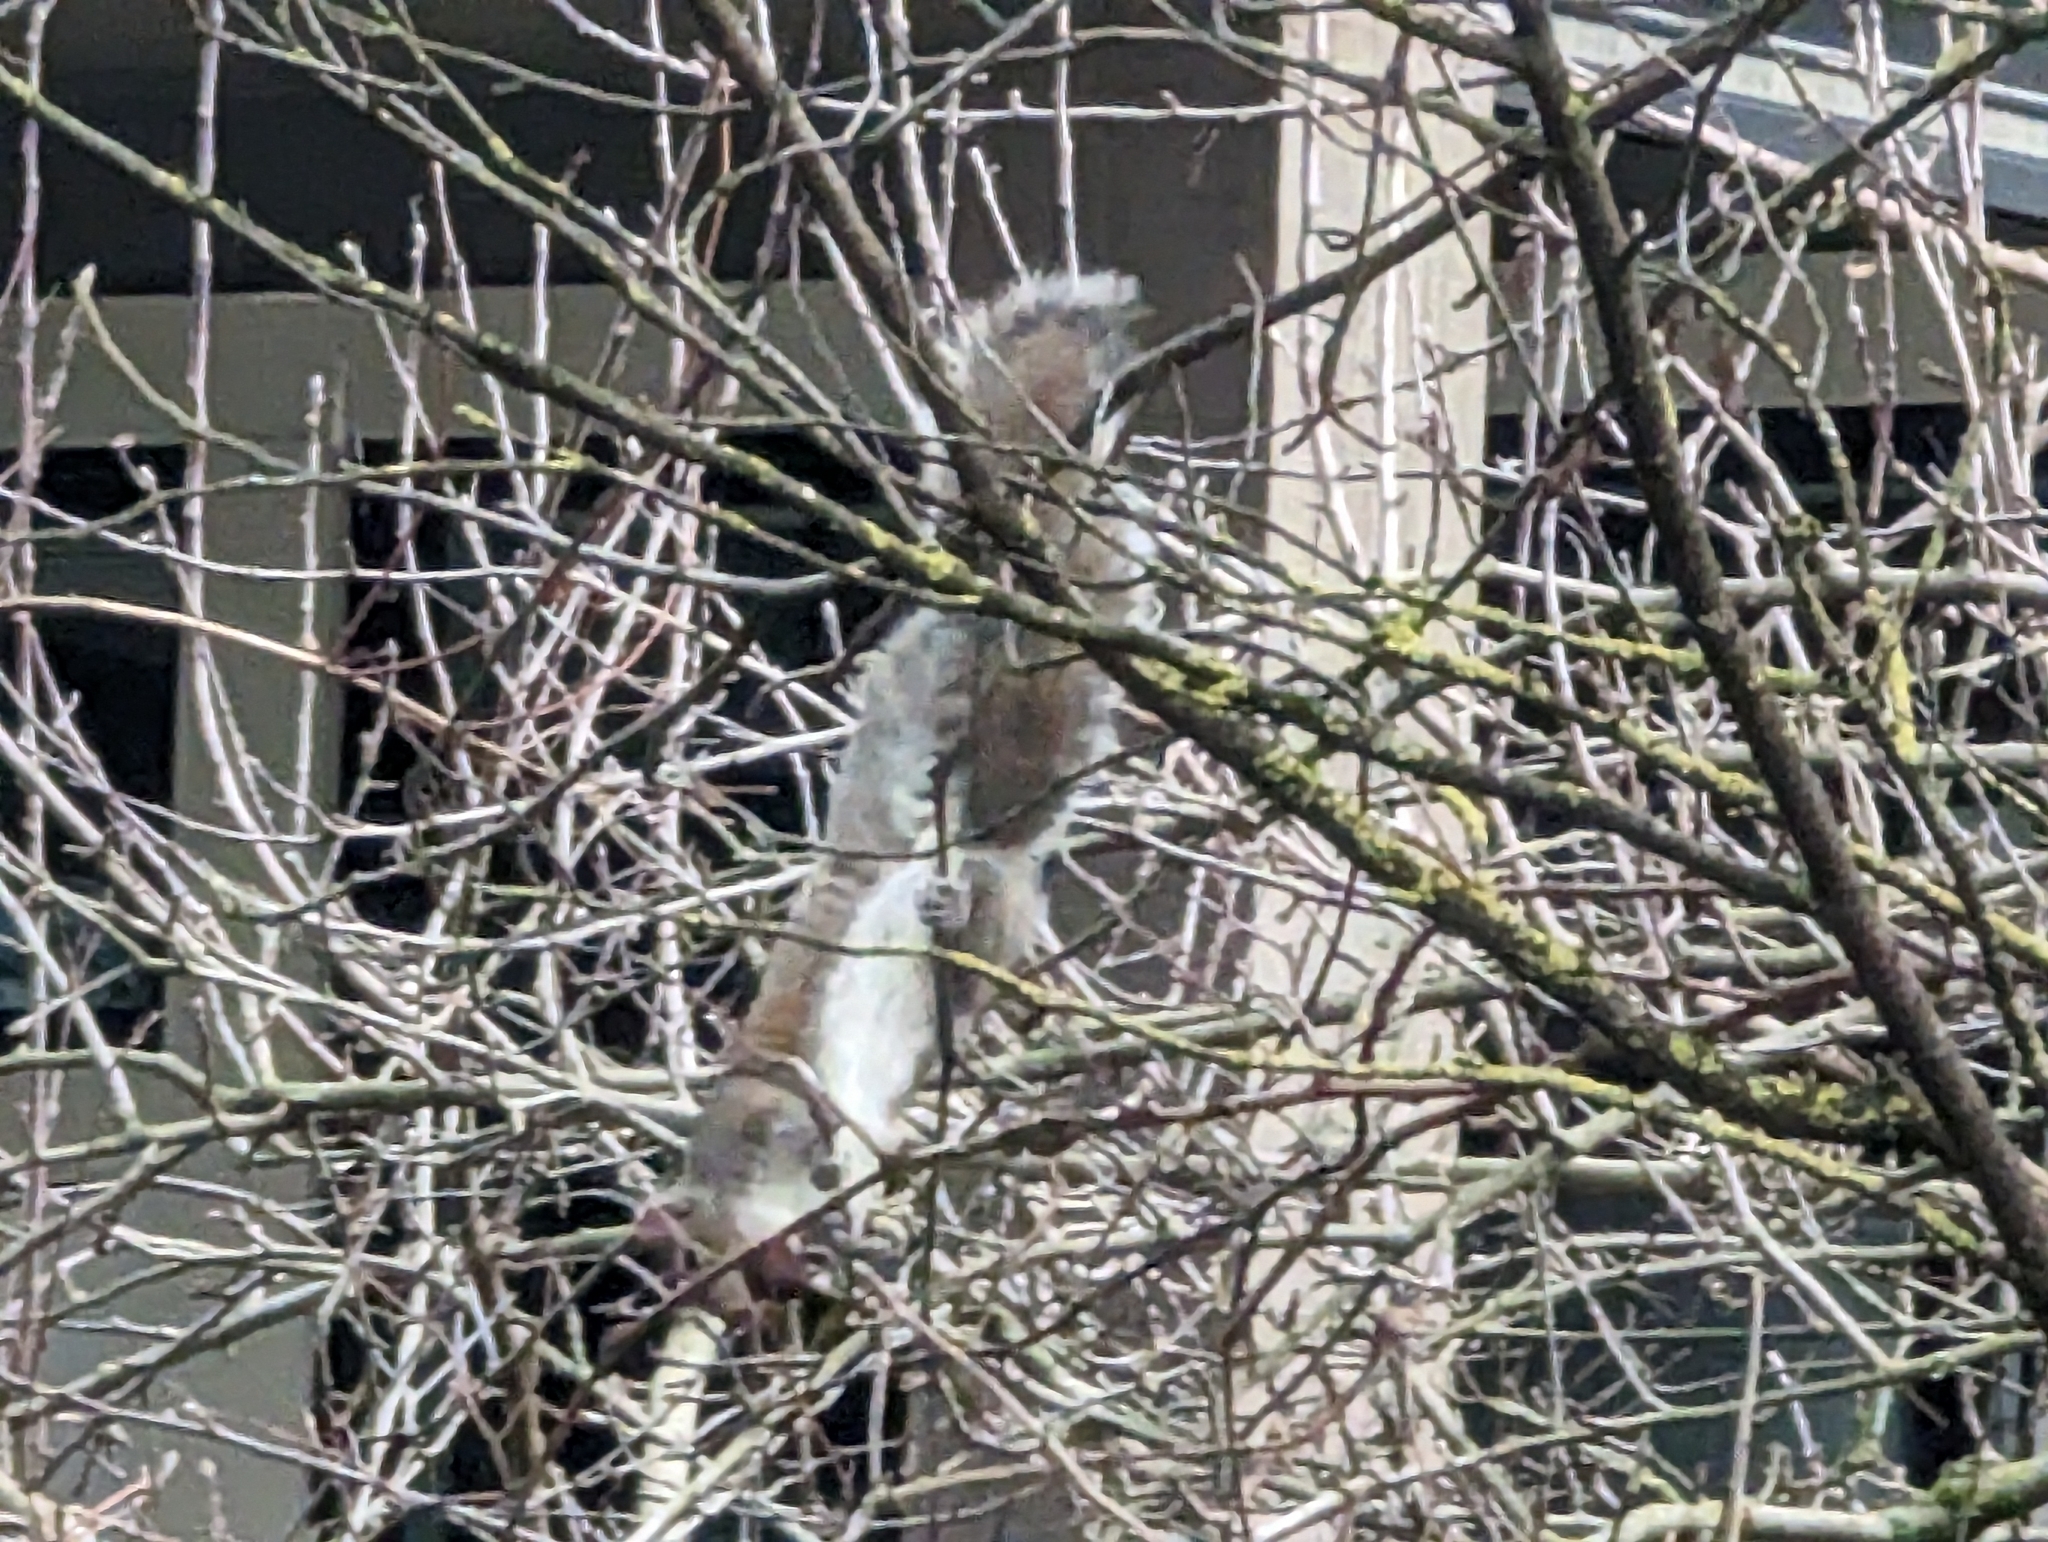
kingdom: Animalia
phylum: Chordata
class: Mammalia
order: Rodentia
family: Sciuridae
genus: Sciurus
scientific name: Sciurus carolinensis
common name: Eastern gray squirrel
